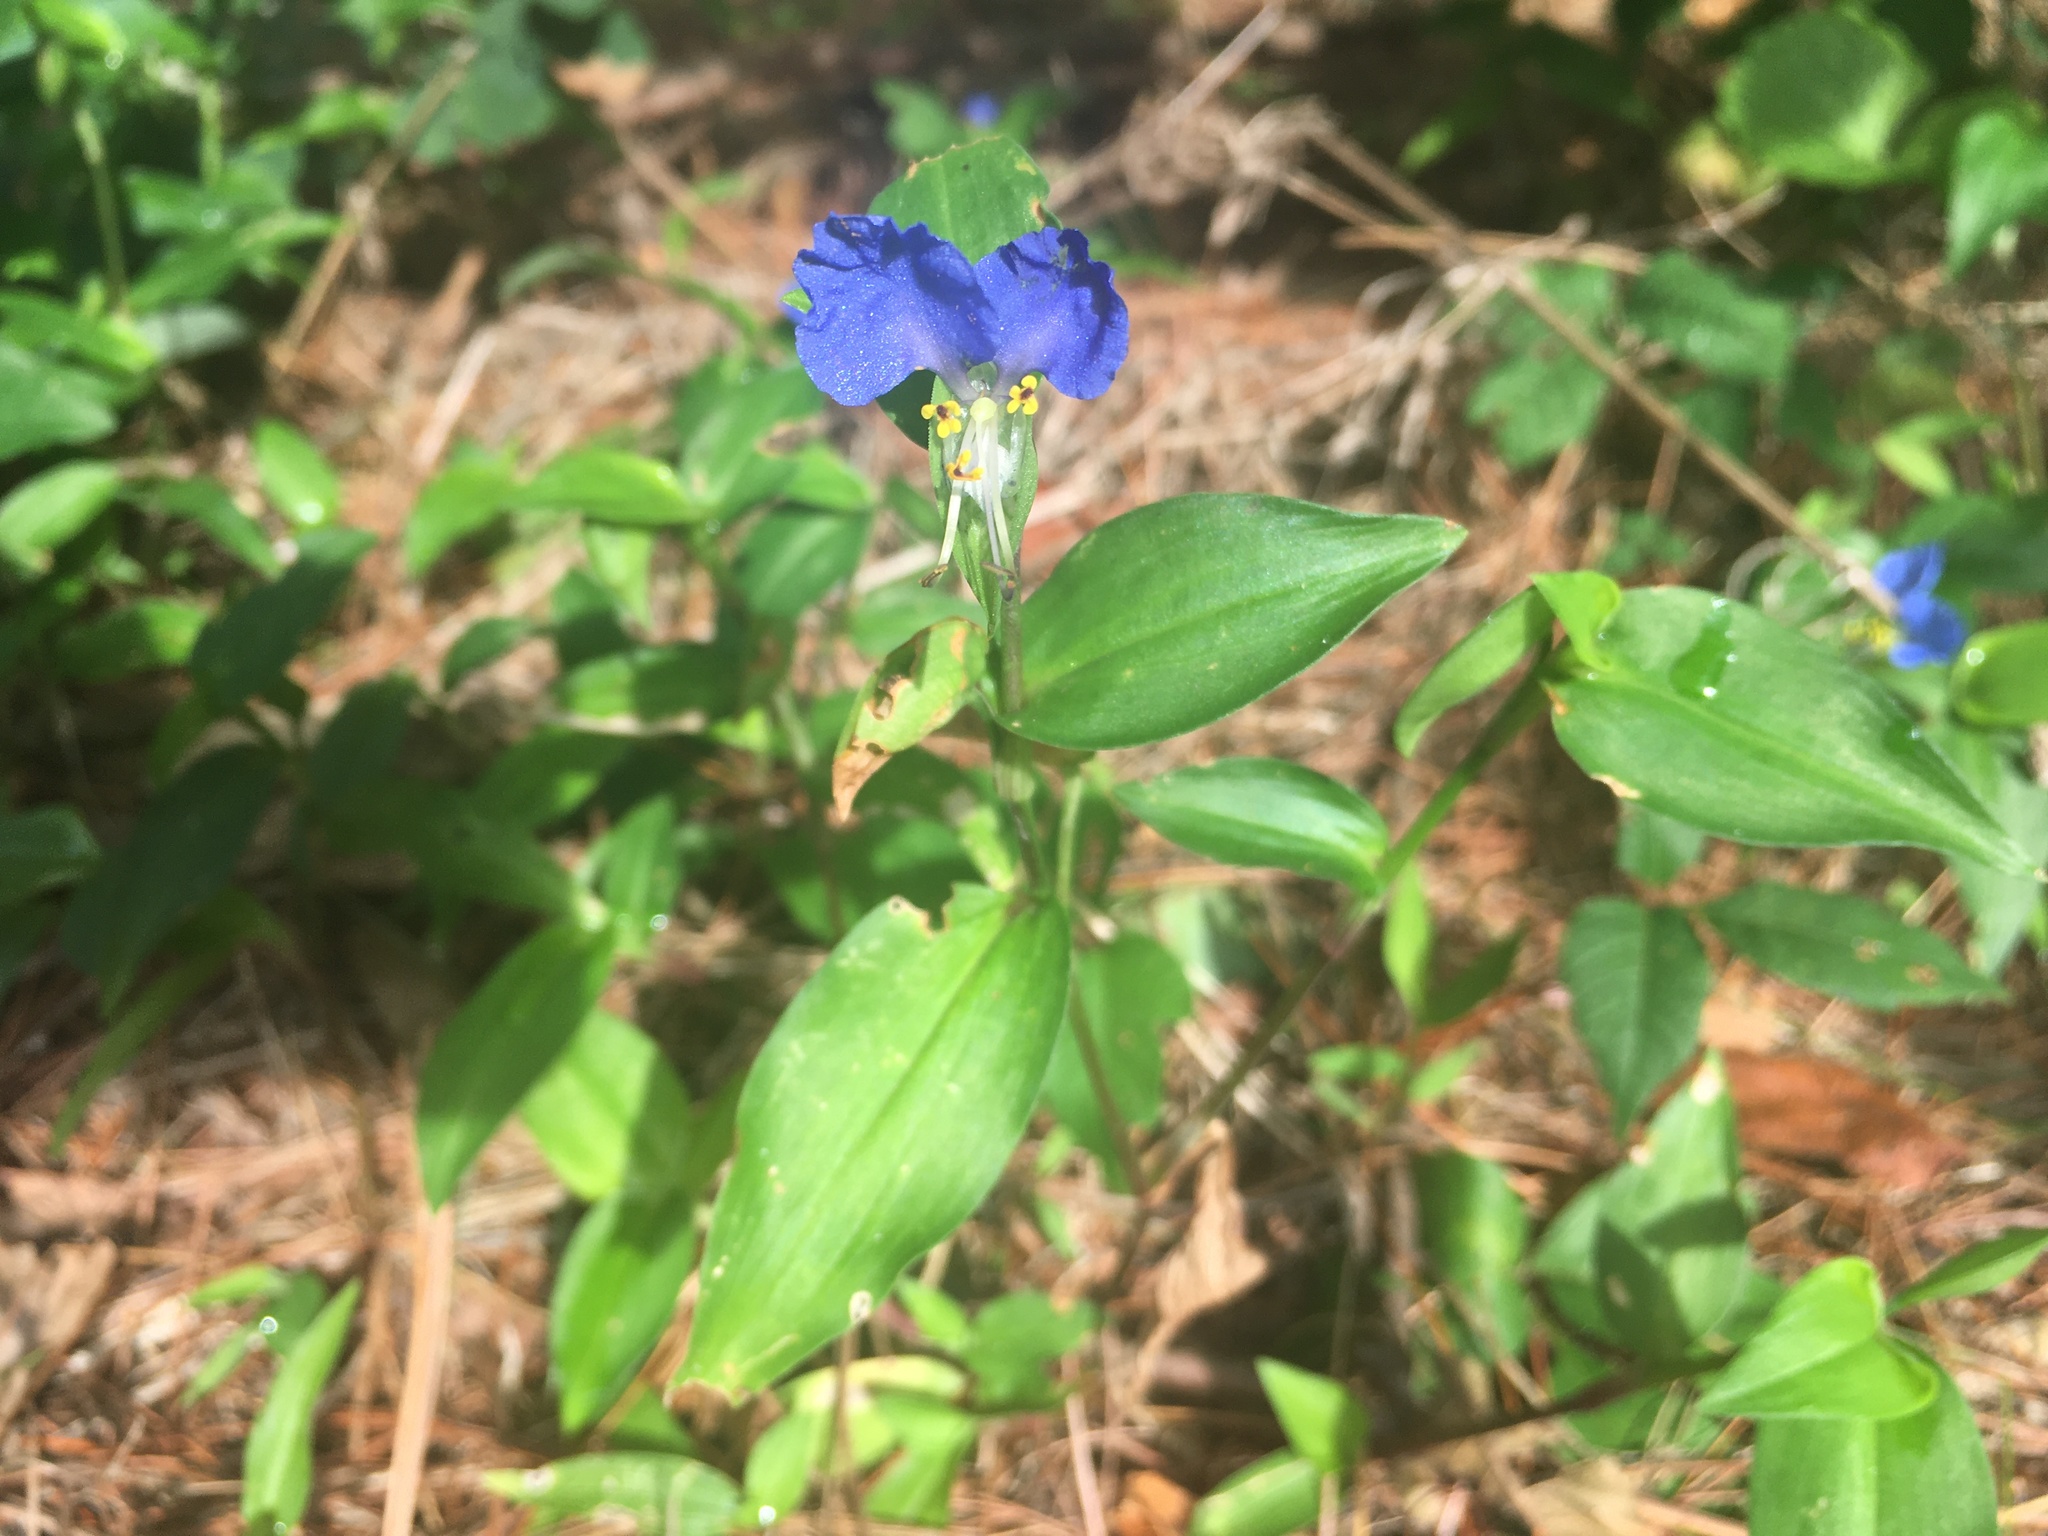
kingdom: Plantae
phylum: Tracheophyta
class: Liliopsida
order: Commelinales
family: Commelinaceae
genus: Commelina
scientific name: Commelina communis
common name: Asiatic dayflower
